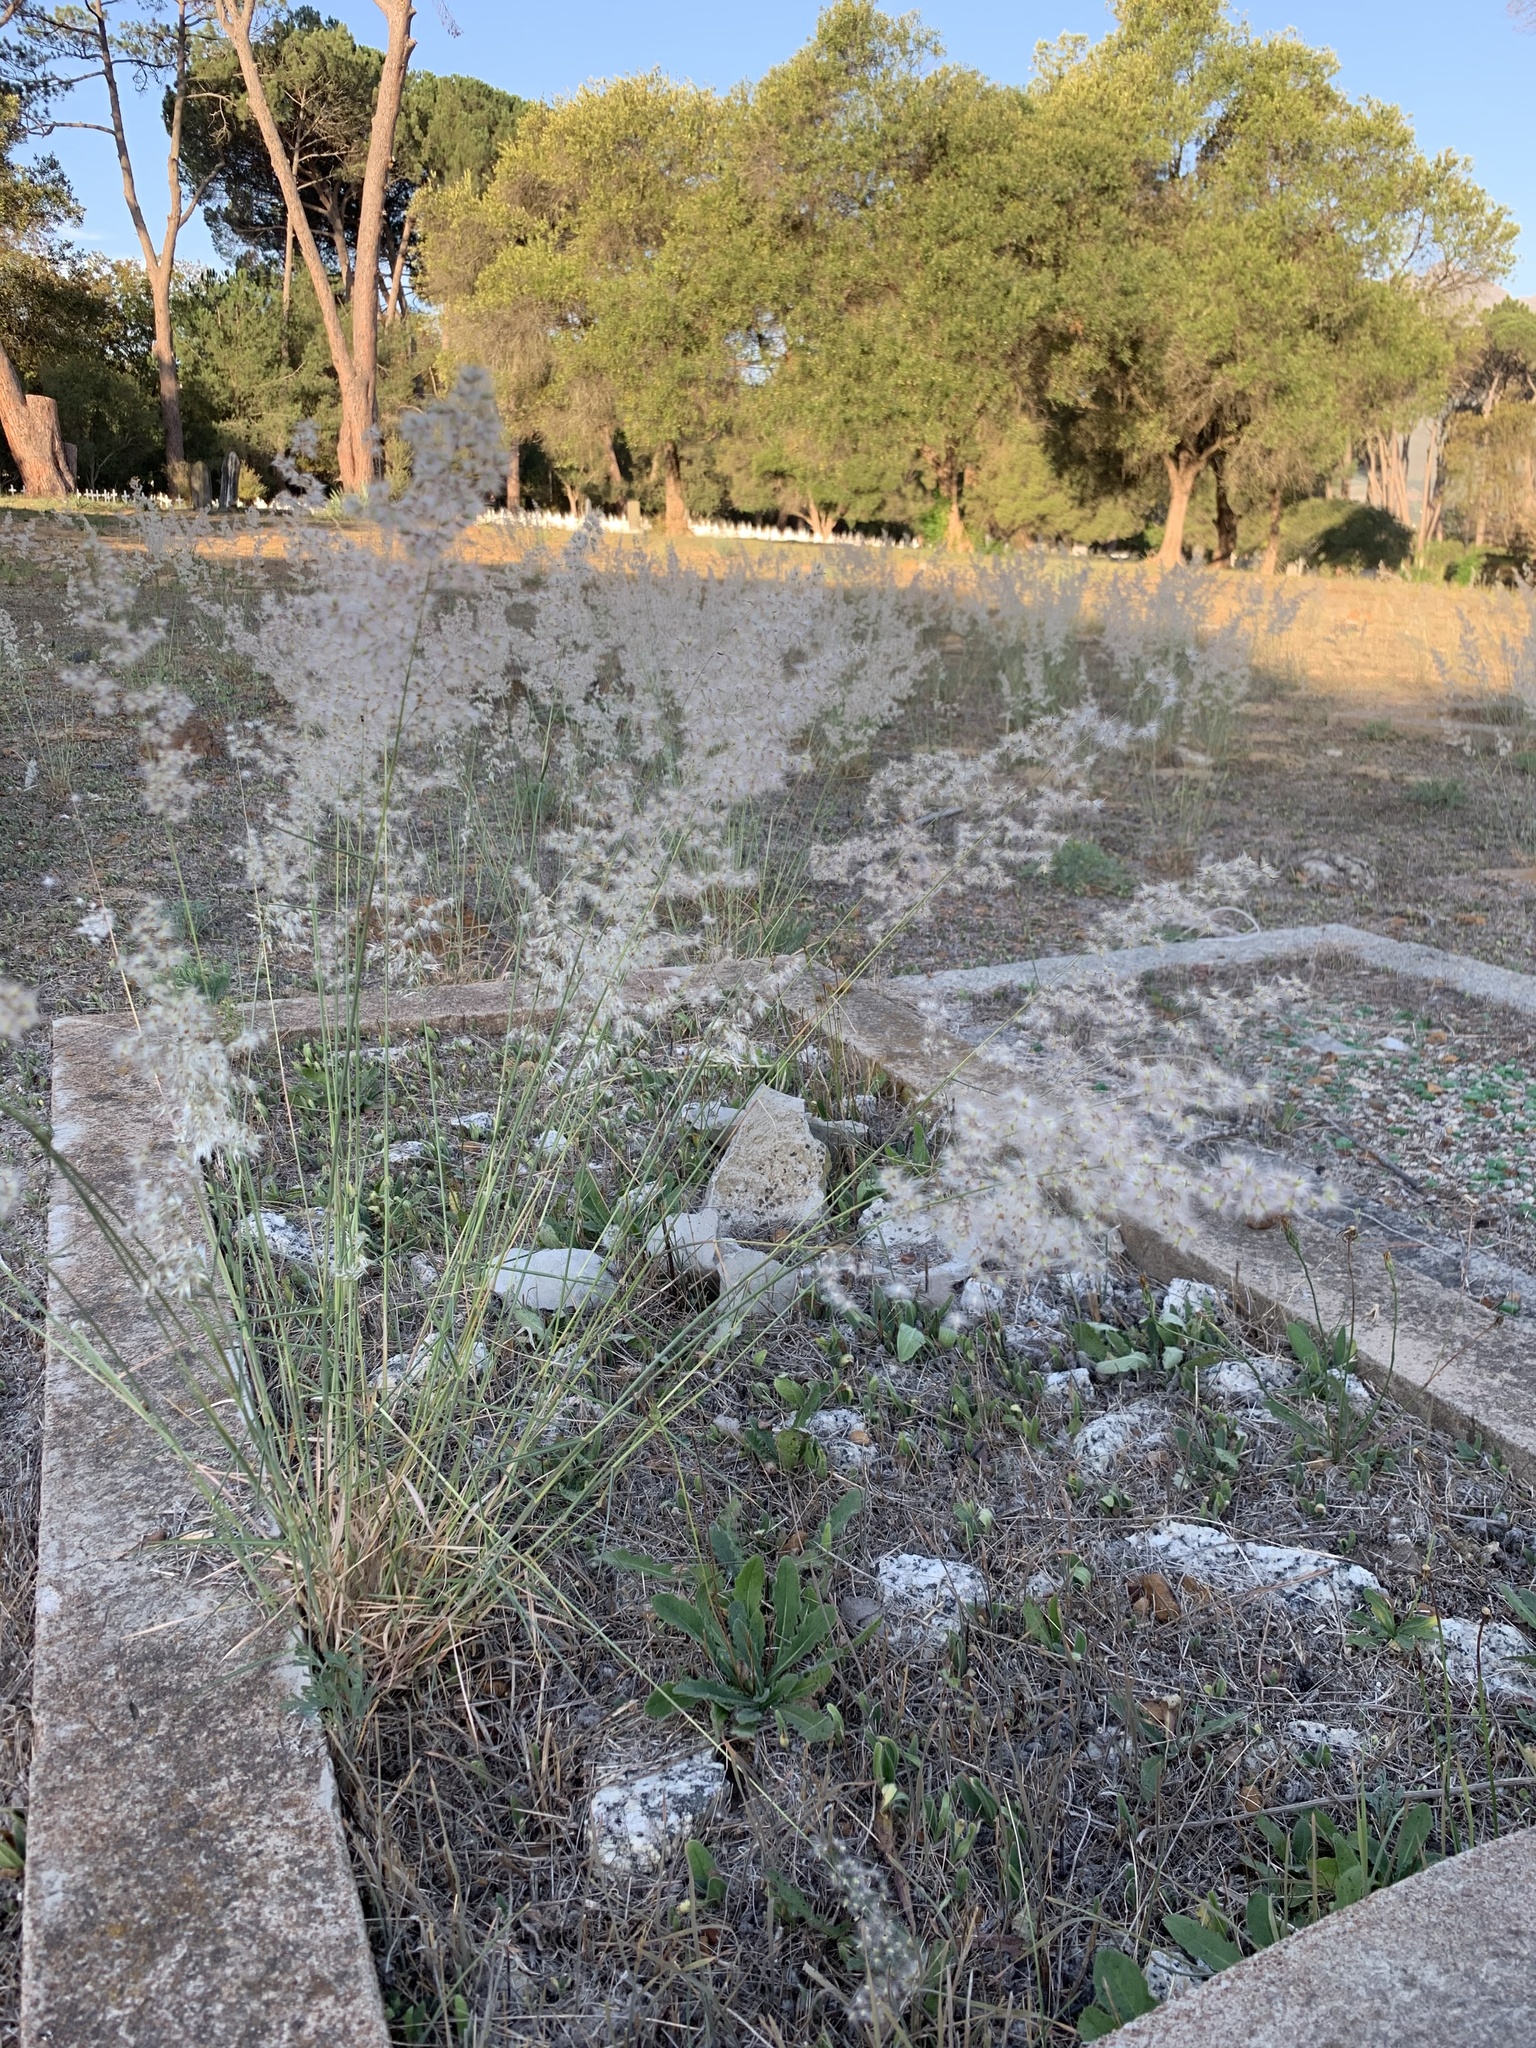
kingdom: Plantae
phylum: Tracheophyta
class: Liliopsida
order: Poales
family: Poaceae
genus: Melinis
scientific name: Melinis repens
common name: Rose natal grass
